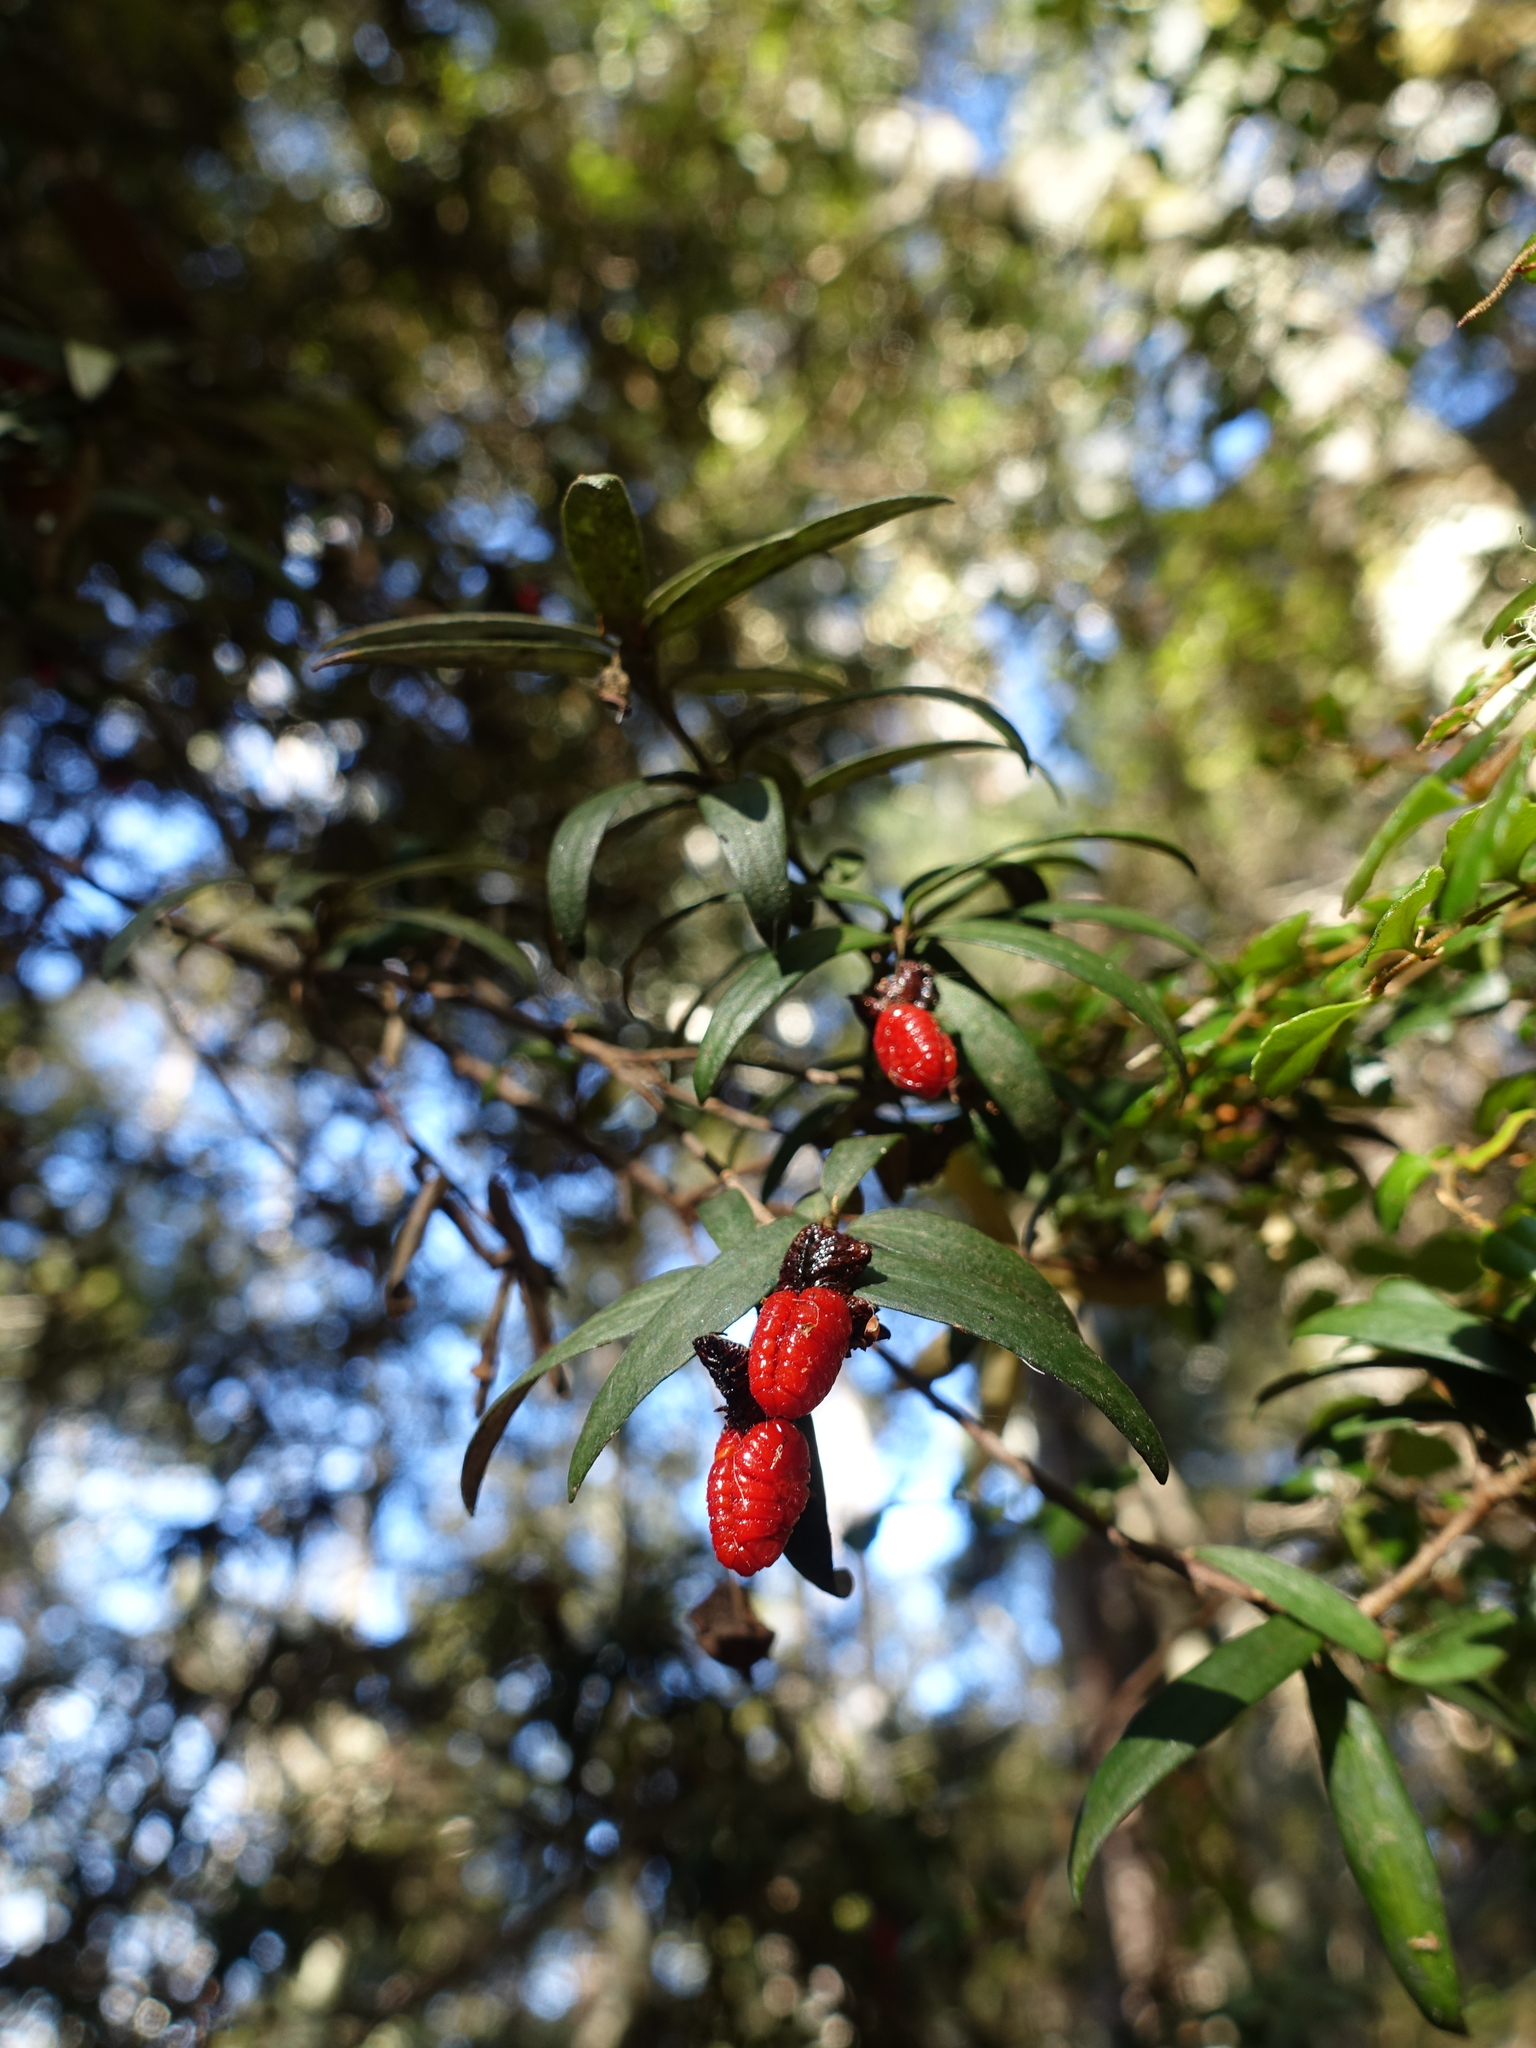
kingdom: Plantae
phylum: Tracheophyta
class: Magnoliopsida
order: Apiales
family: Pittosporaceae
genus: Pittosporum
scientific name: Pittosporum bicolor
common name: Tallowwood
